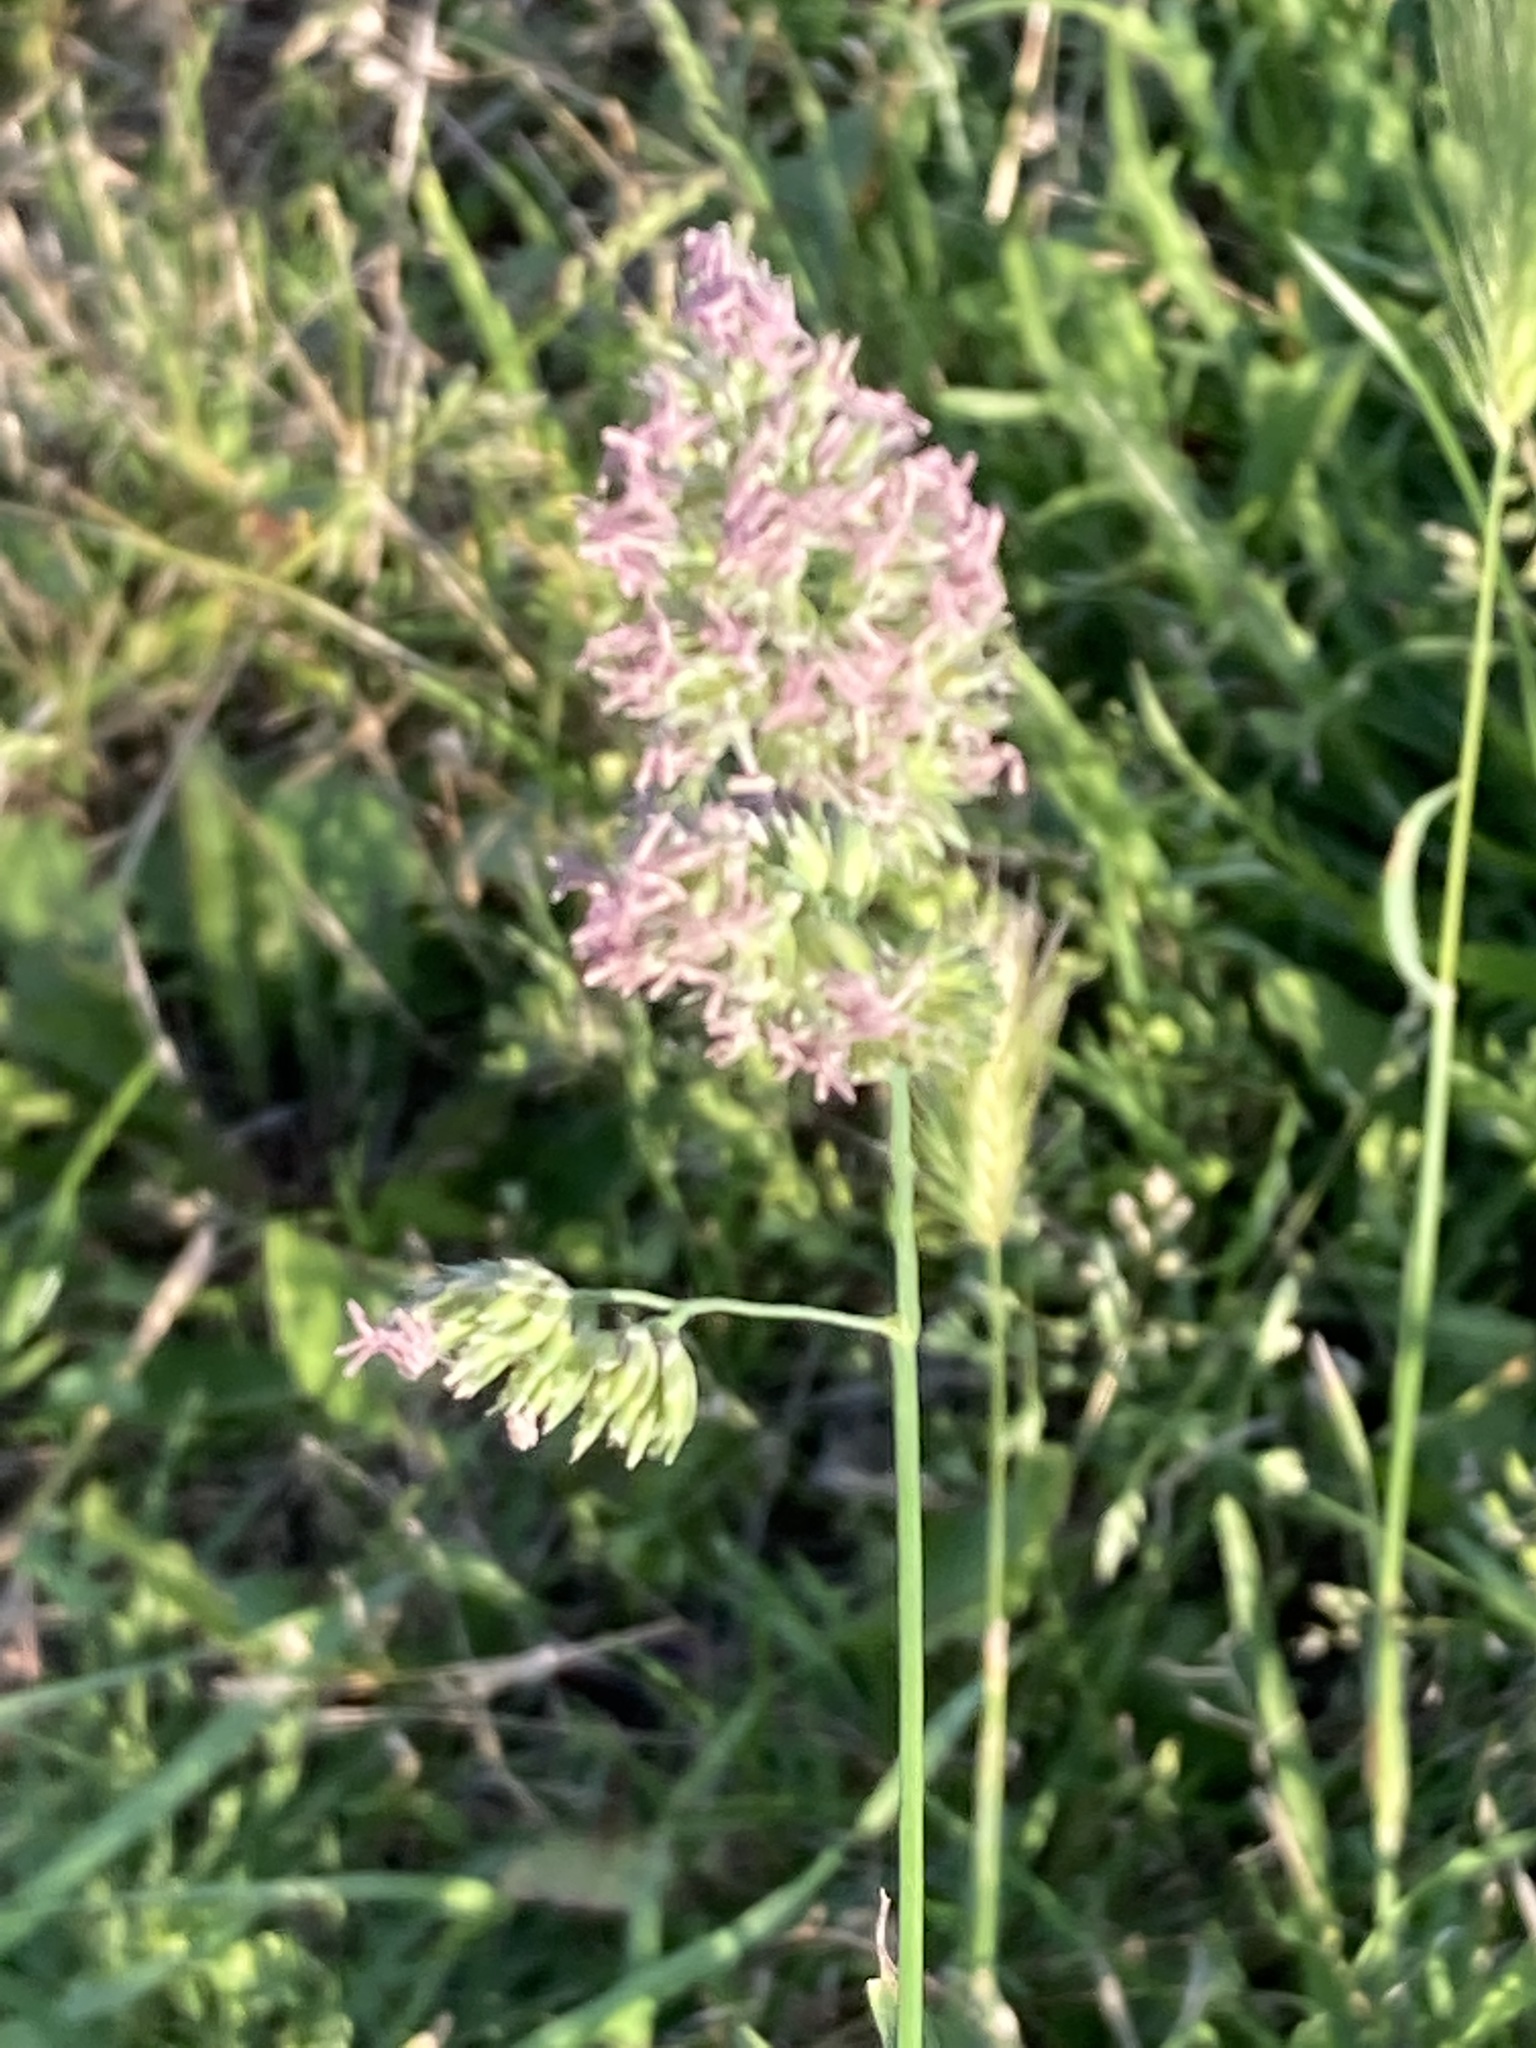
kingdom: Plantae
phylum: Tracheophyta
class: Liliopsida
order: Poales
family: Poaceae
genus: Dactylis
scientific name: Dactylis glomerata
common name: Orchardgrass
